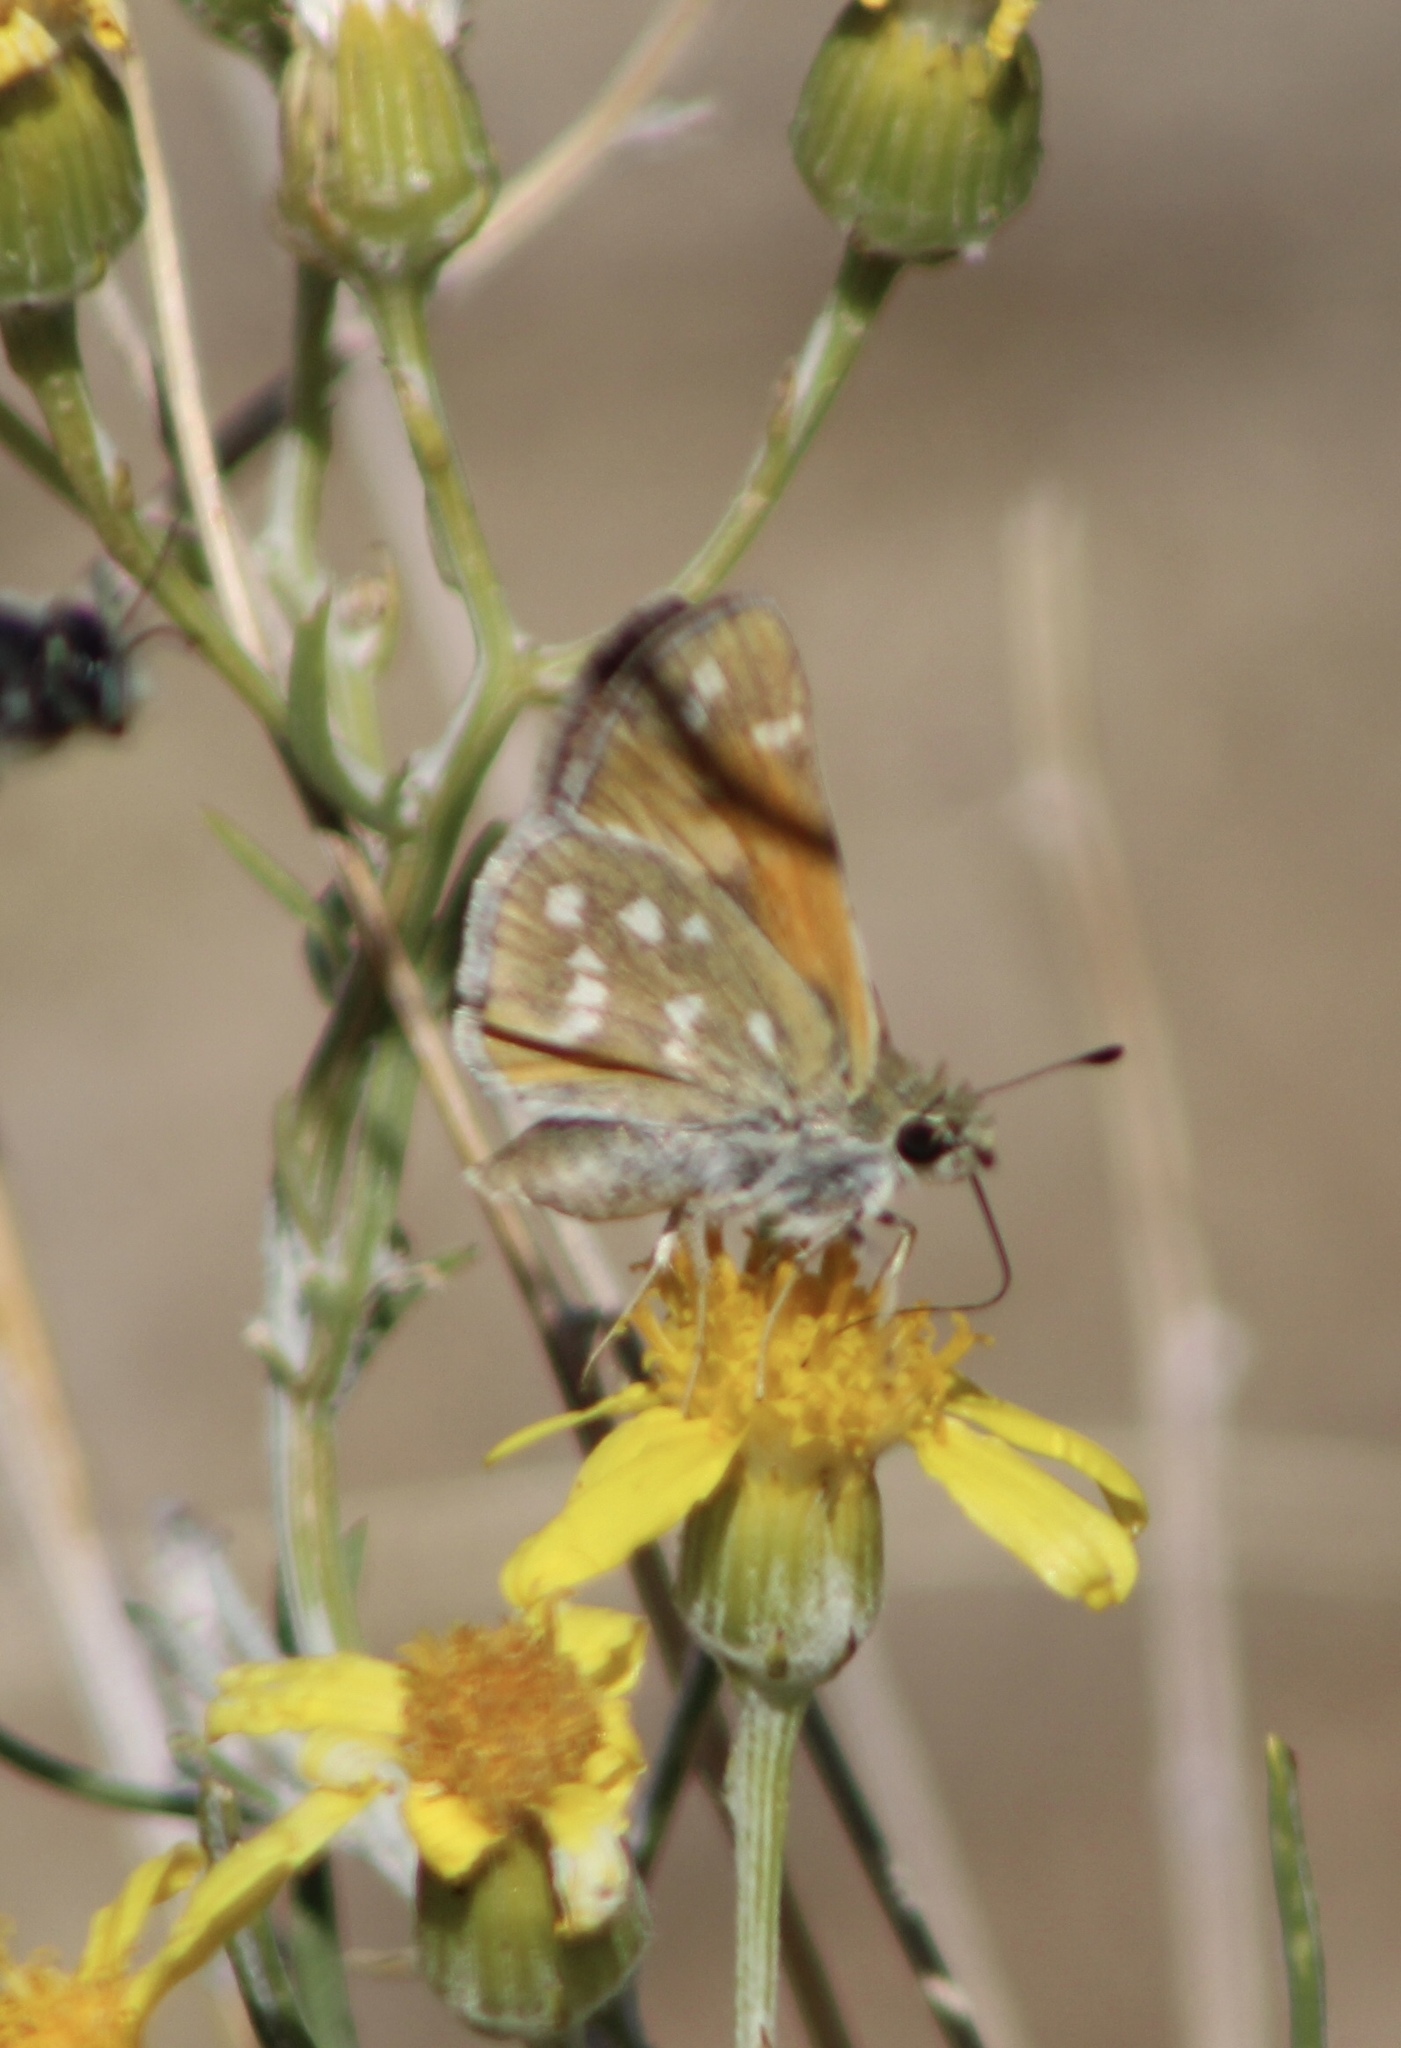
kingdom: Animalia
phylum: Arthropoda
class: Insecta
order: Lepidoptera
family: Hesperiidae
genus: Hesperia
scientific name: Hesperia pahaska
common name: Pahaska skipper
